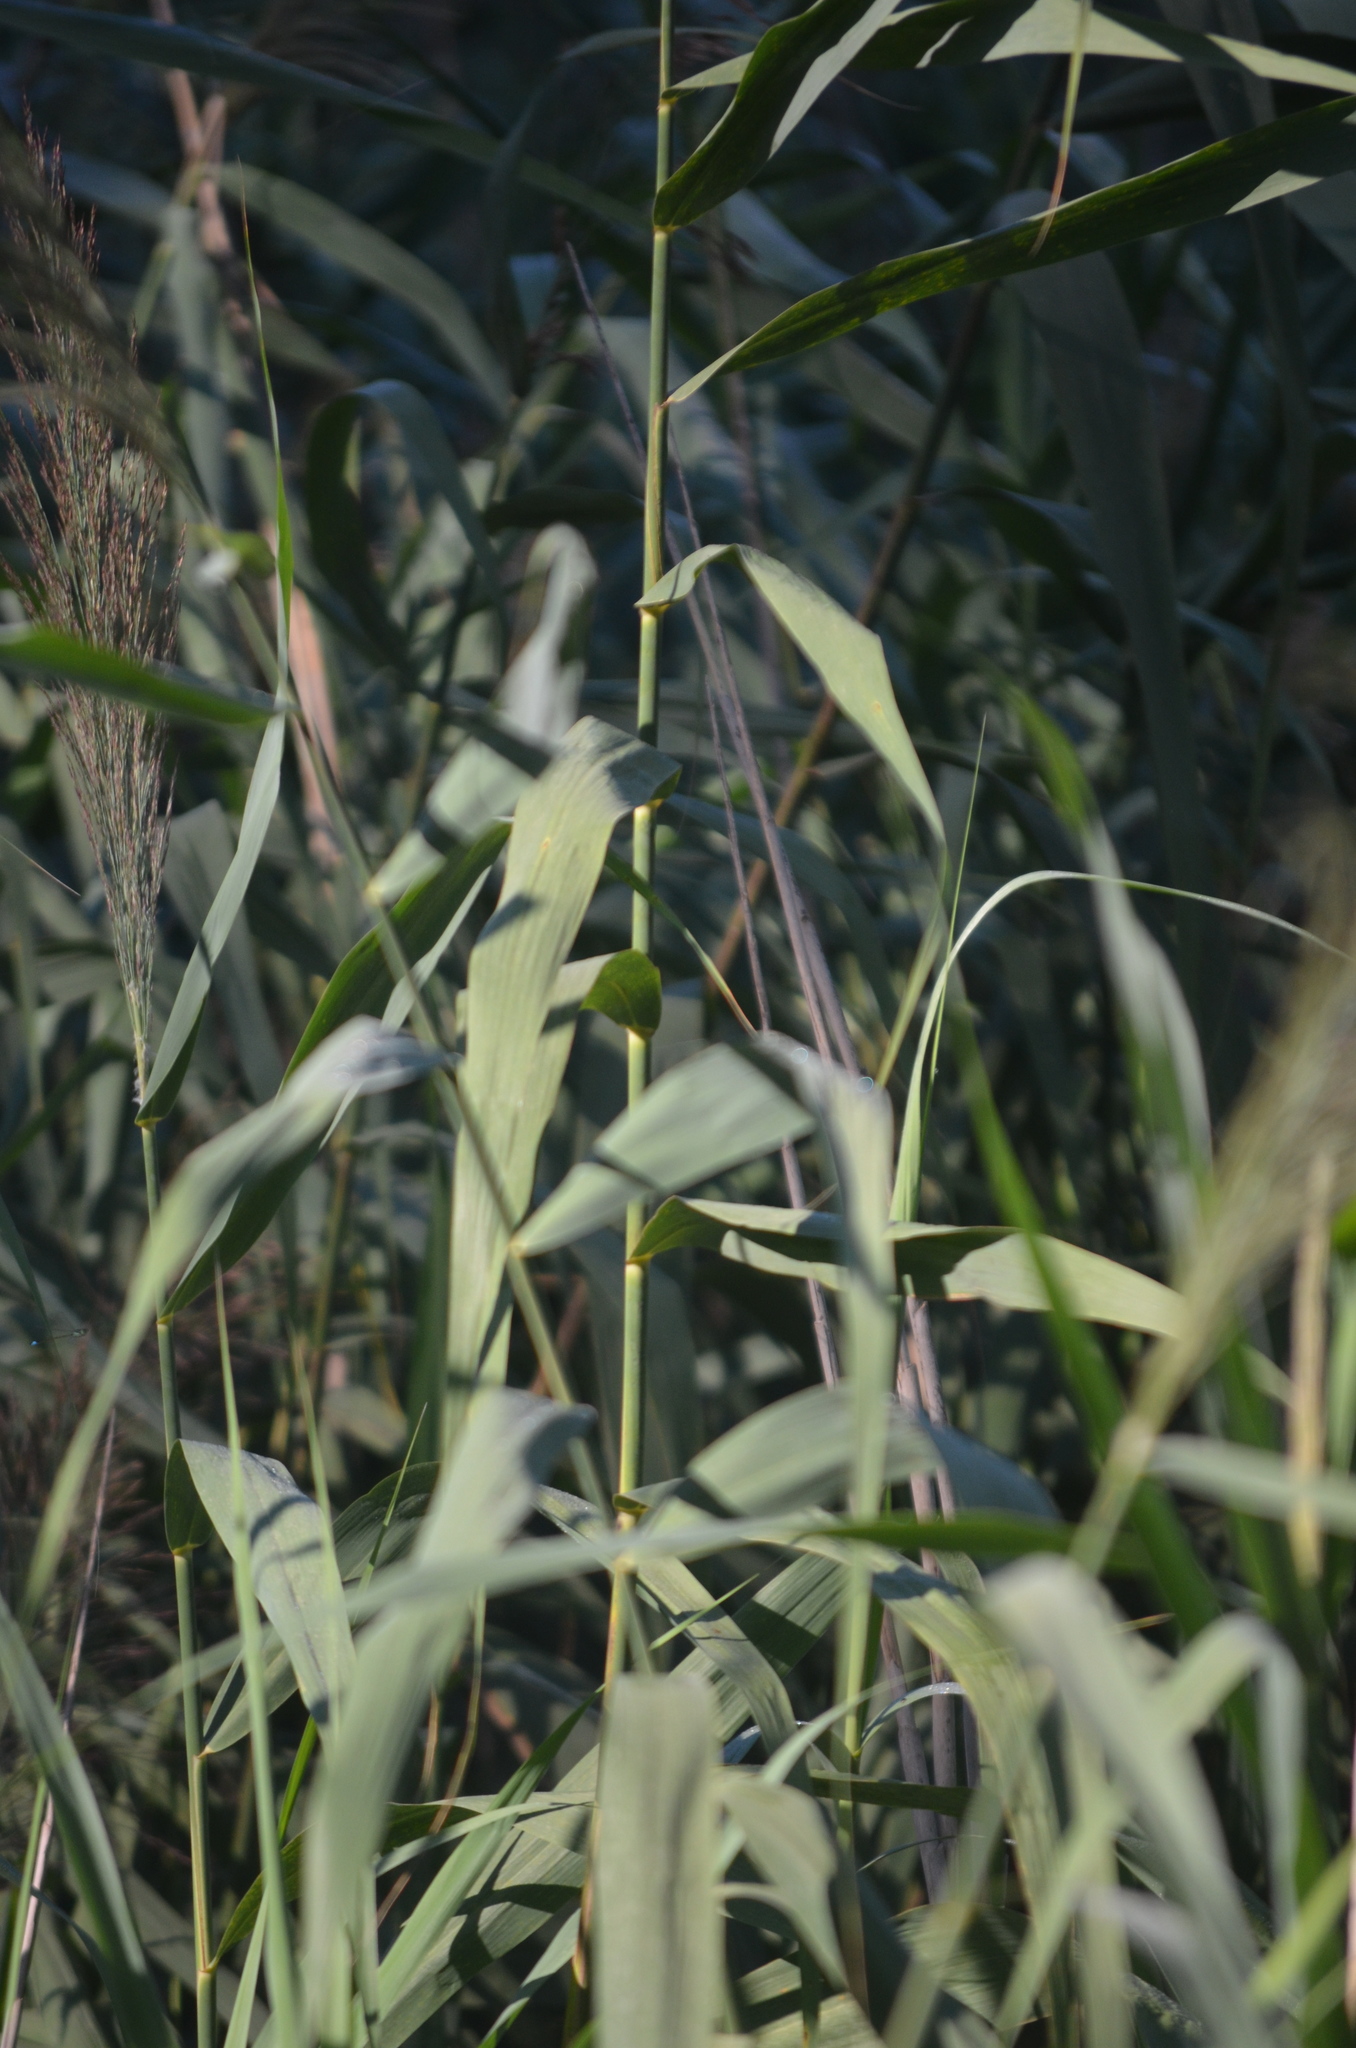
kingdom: Plantae
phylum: Tracheophyta
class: Liliopsida
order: Poales
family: Poaceae
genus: Phragmites
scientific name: Phragmites australis
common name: Common reed
